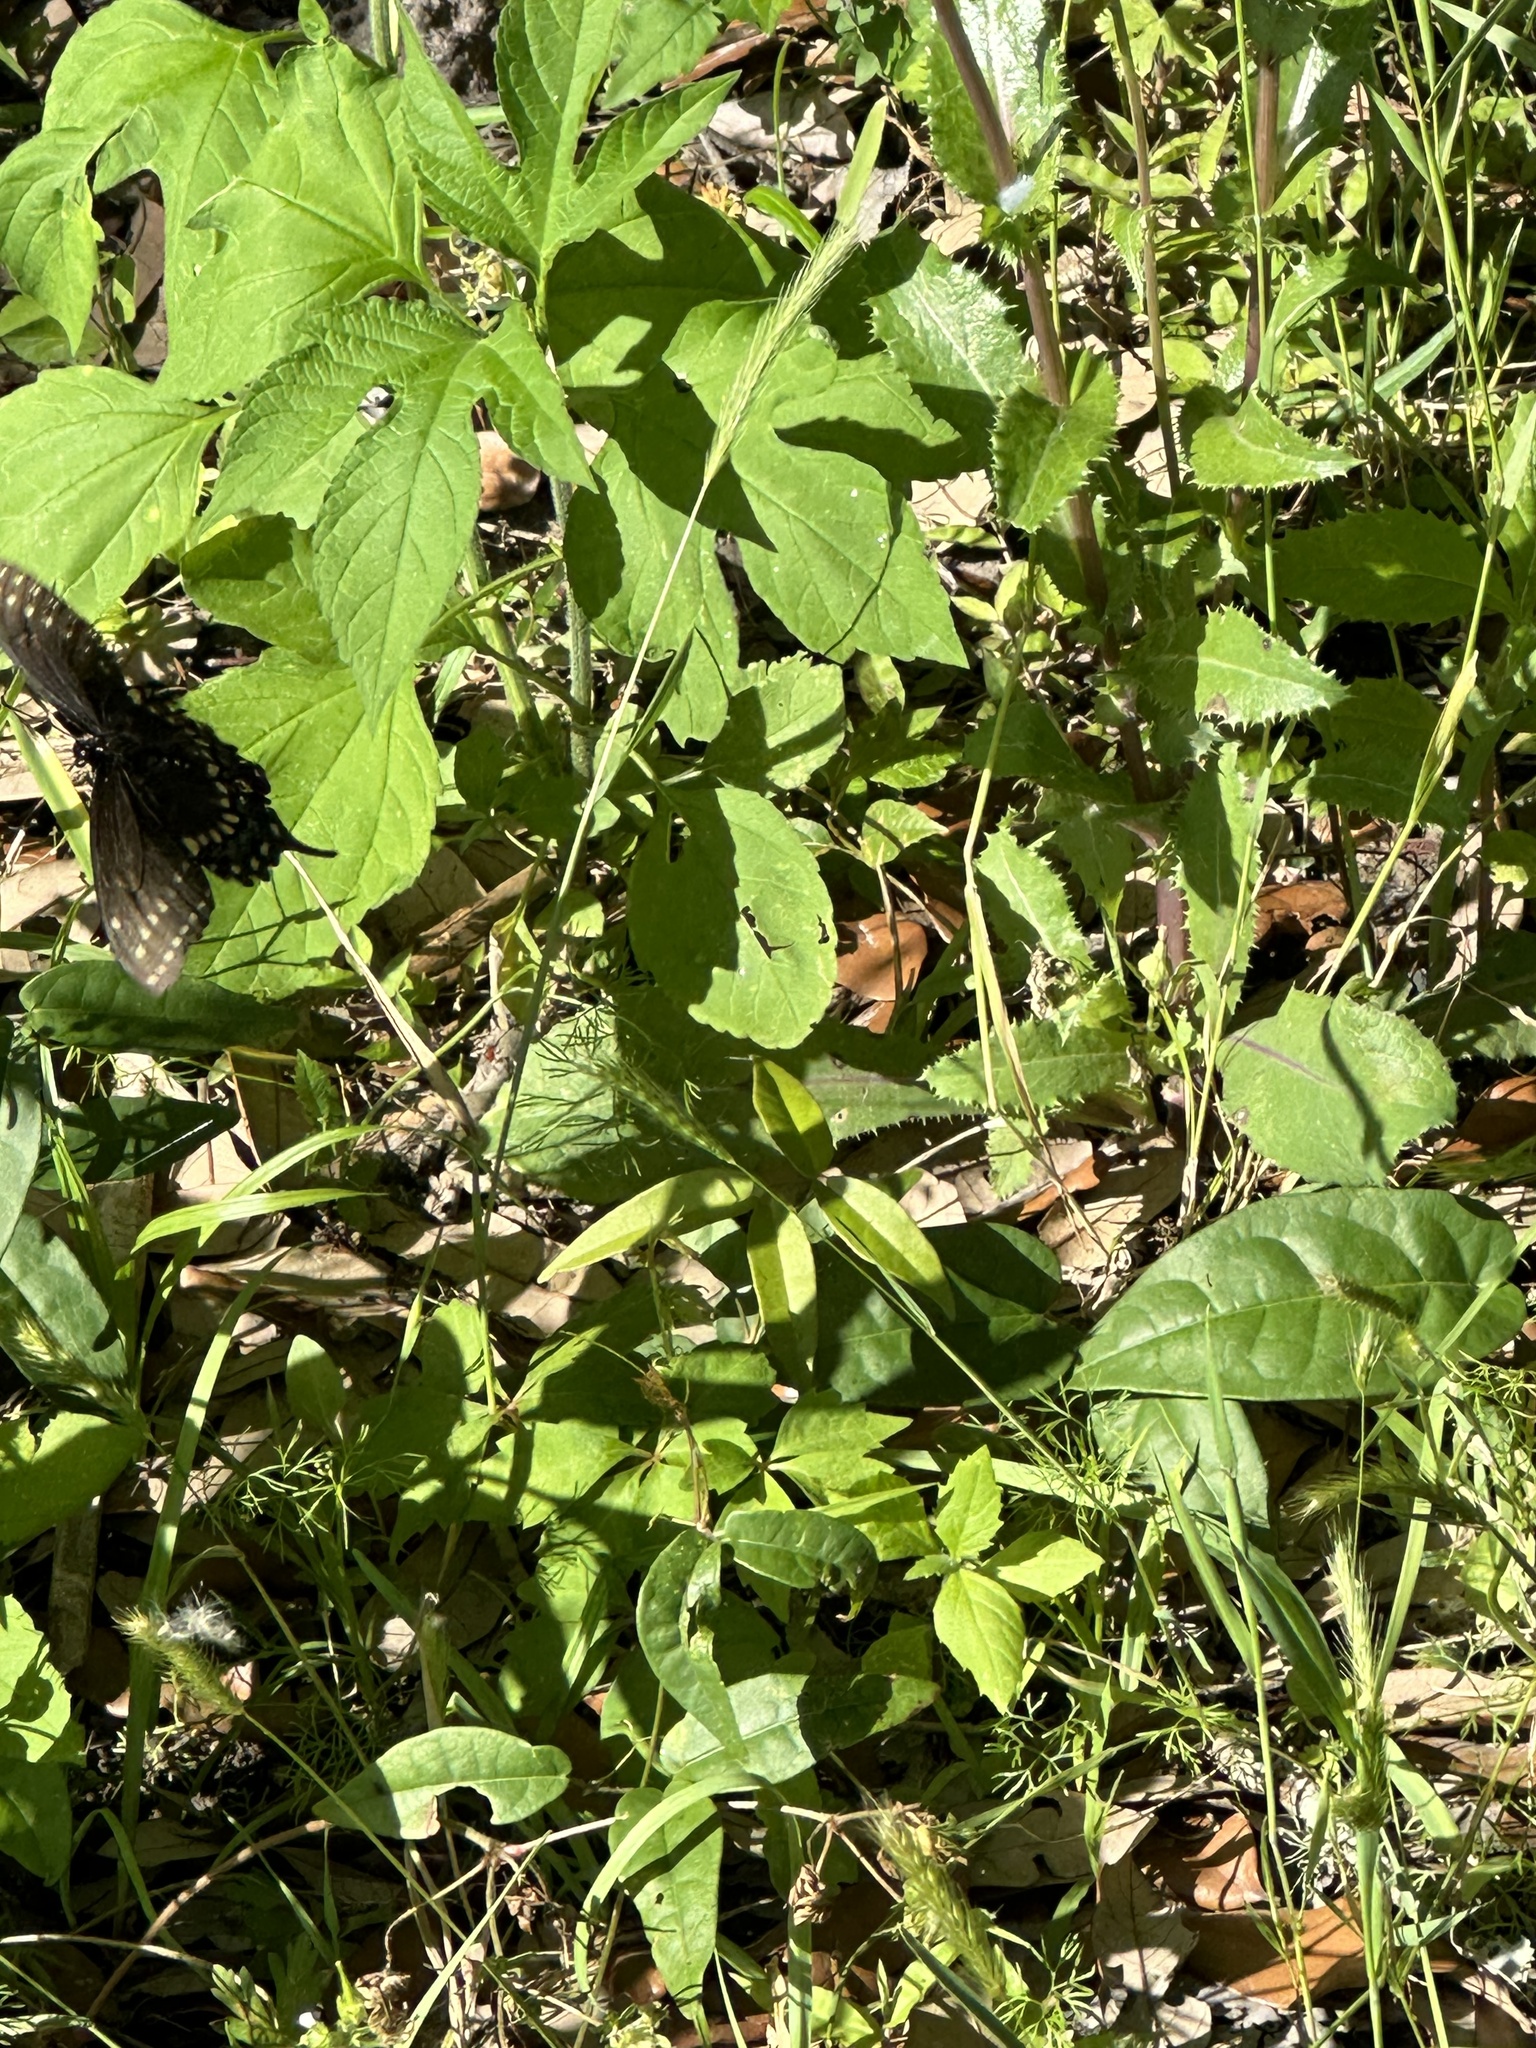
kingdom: Animalia
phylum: Arthropoda
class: Insecta
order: Lepidoptera
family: Papilionidae
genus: Papilio
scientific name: Papilio polyxenes
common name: Black swallowtail
